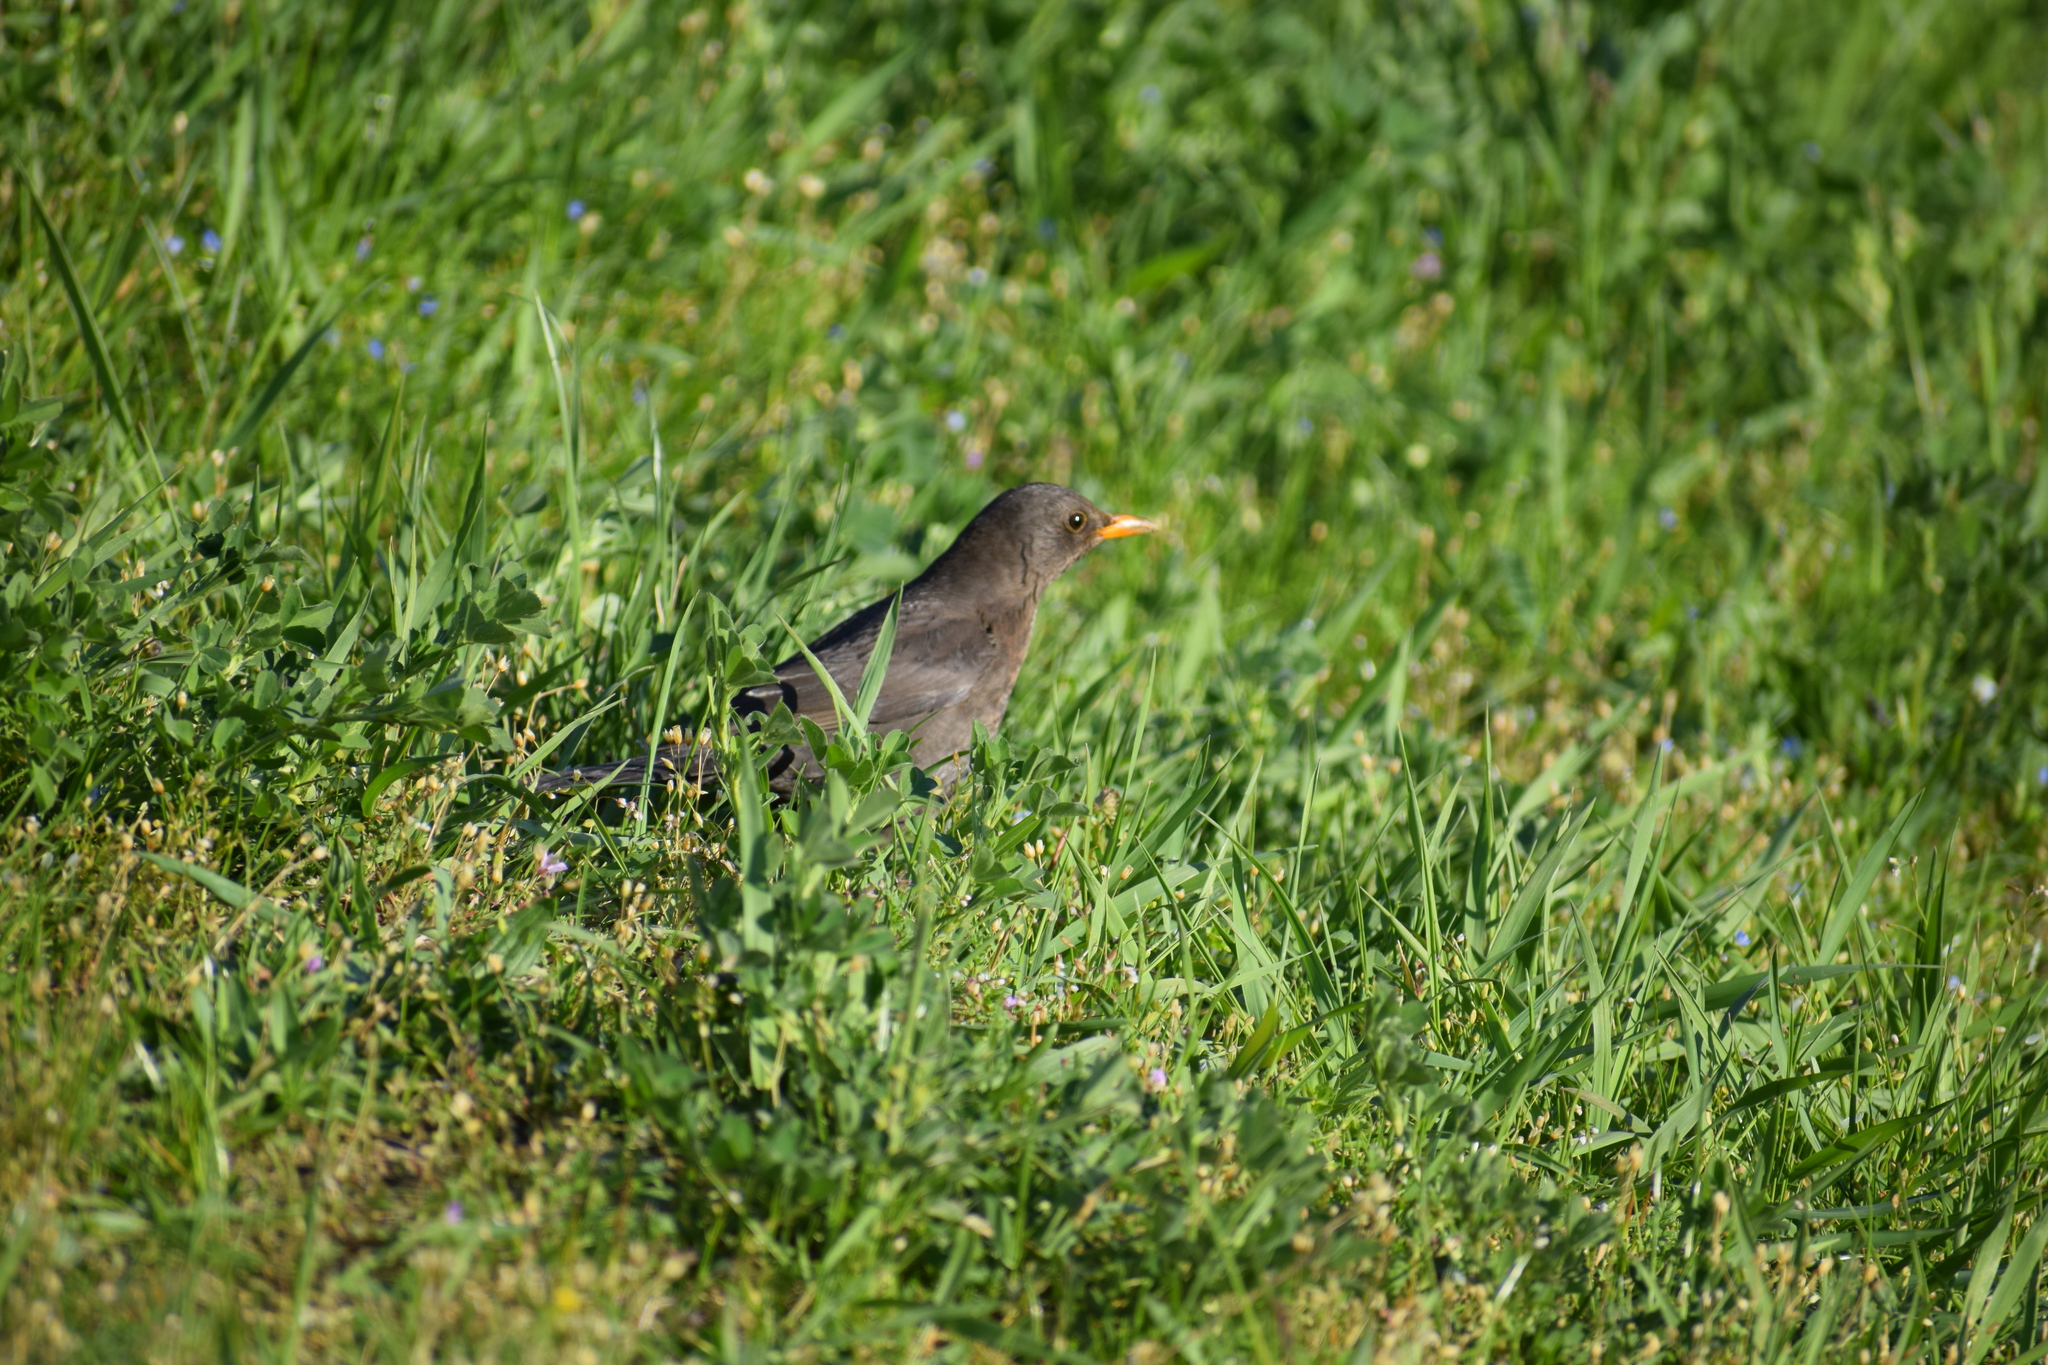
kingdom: Animalia
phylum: Chordata
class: Aves
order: Passeriformes
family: Turdidae
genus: Turdus
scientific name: Turdus merula
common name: Common blackbird
